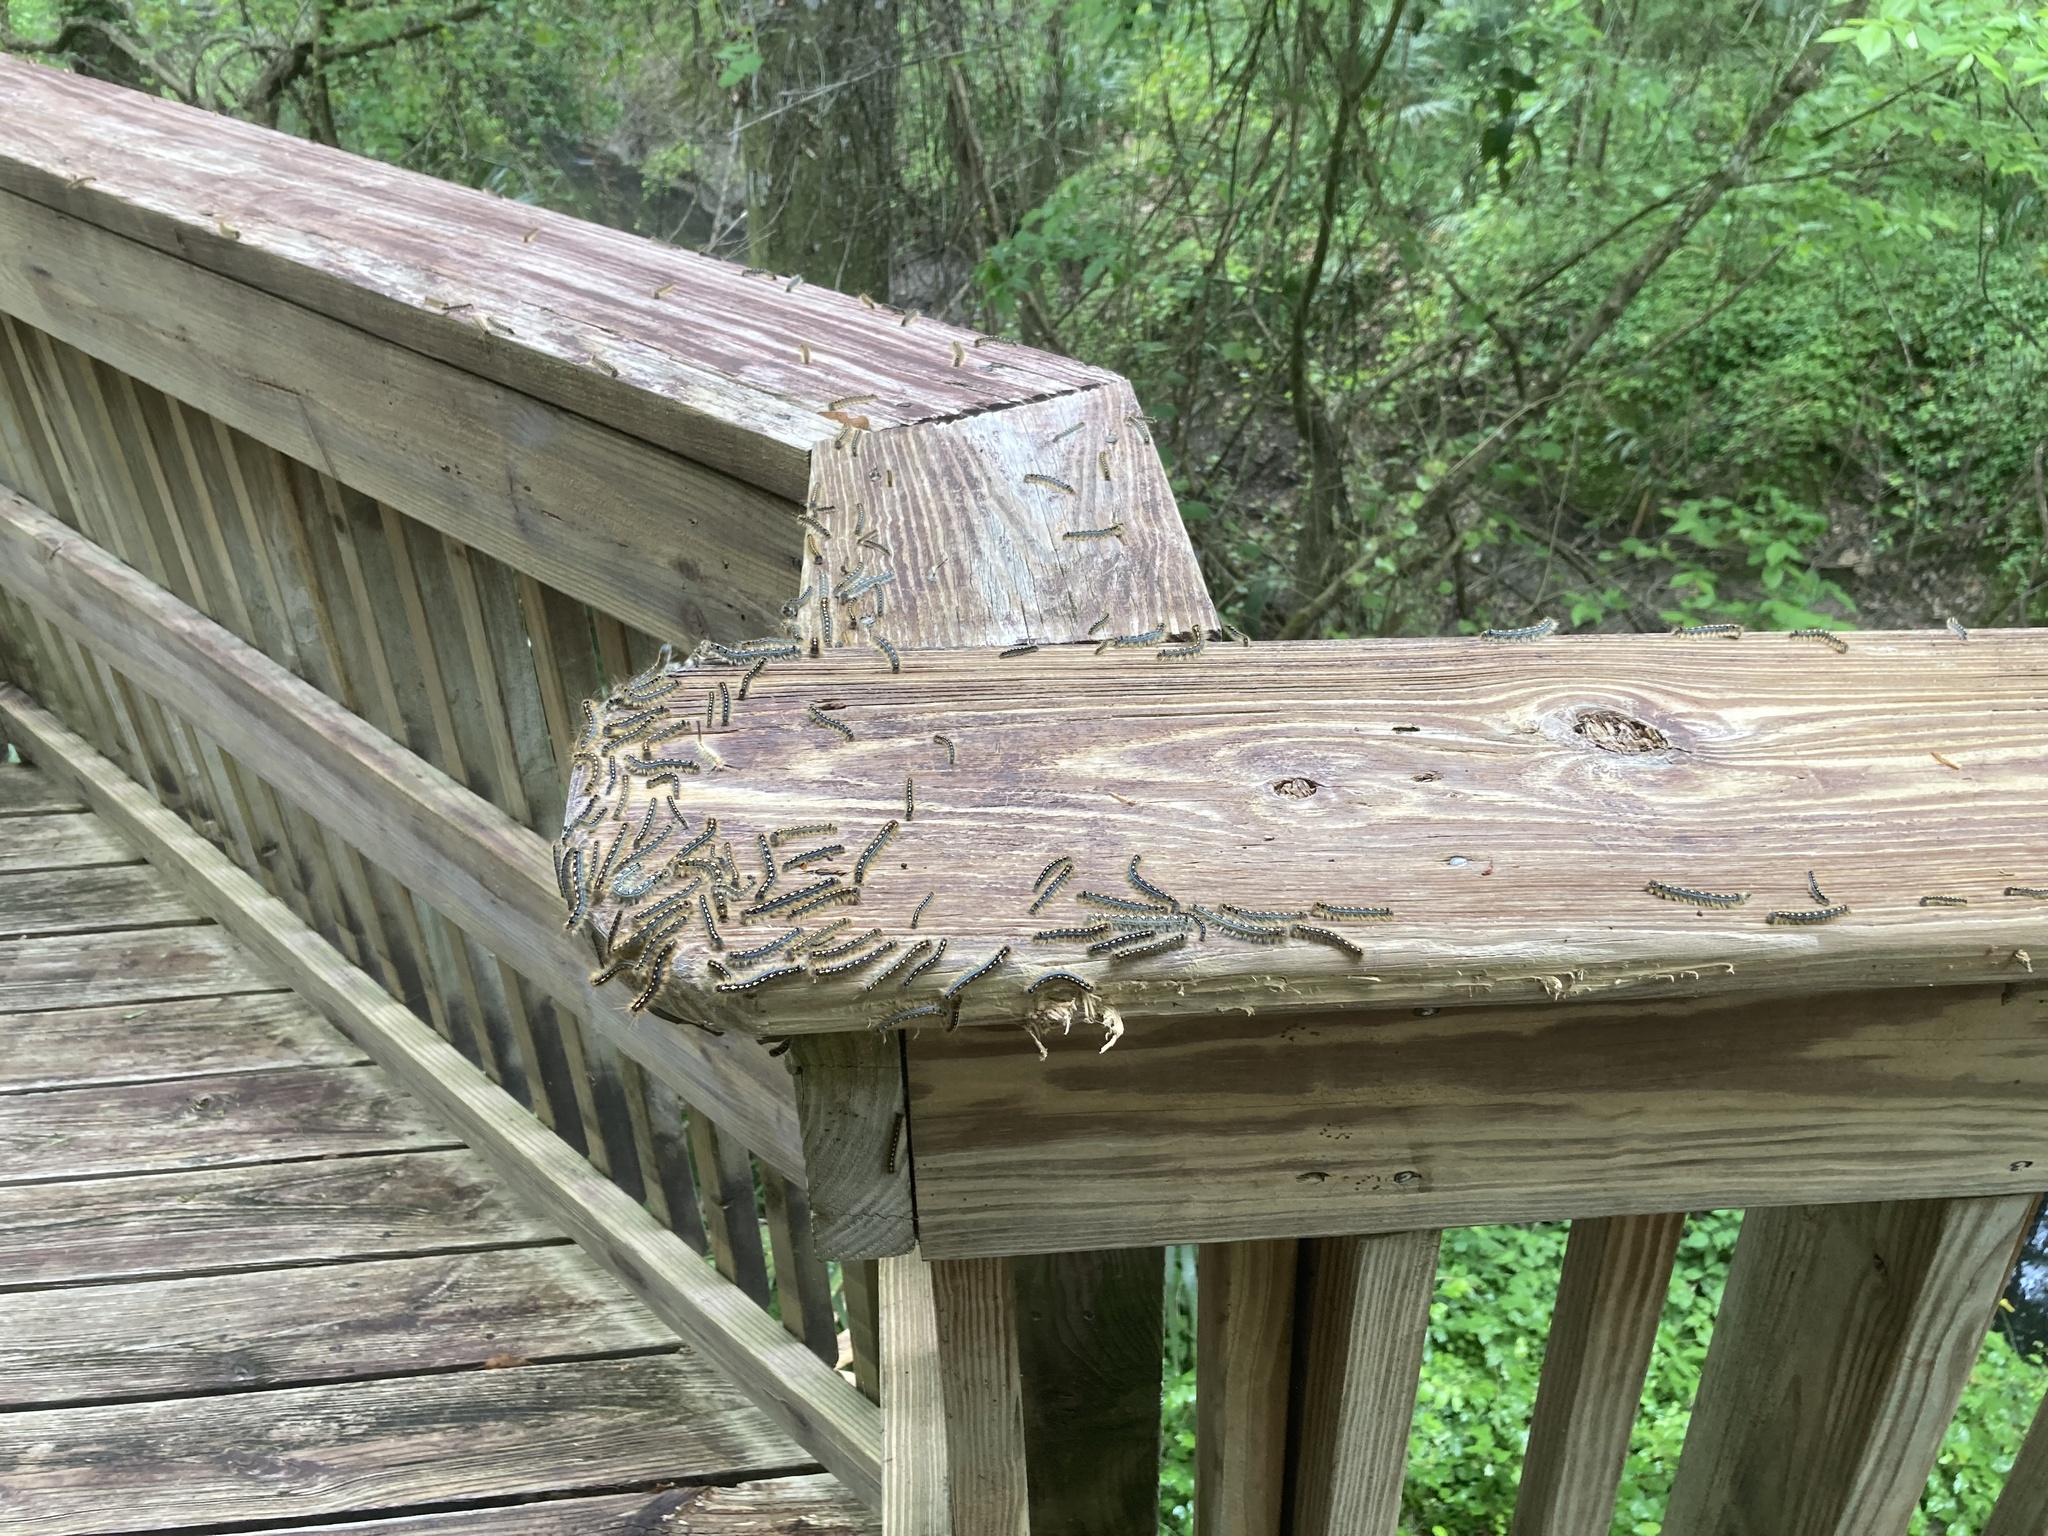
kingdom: Animalia
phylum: Arthropoda
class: Insecta
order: Lepidoptera
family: Lasiocampidae
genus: Malacosoma
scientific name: Malacosoma disstria
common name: Forest tent caterpillar
